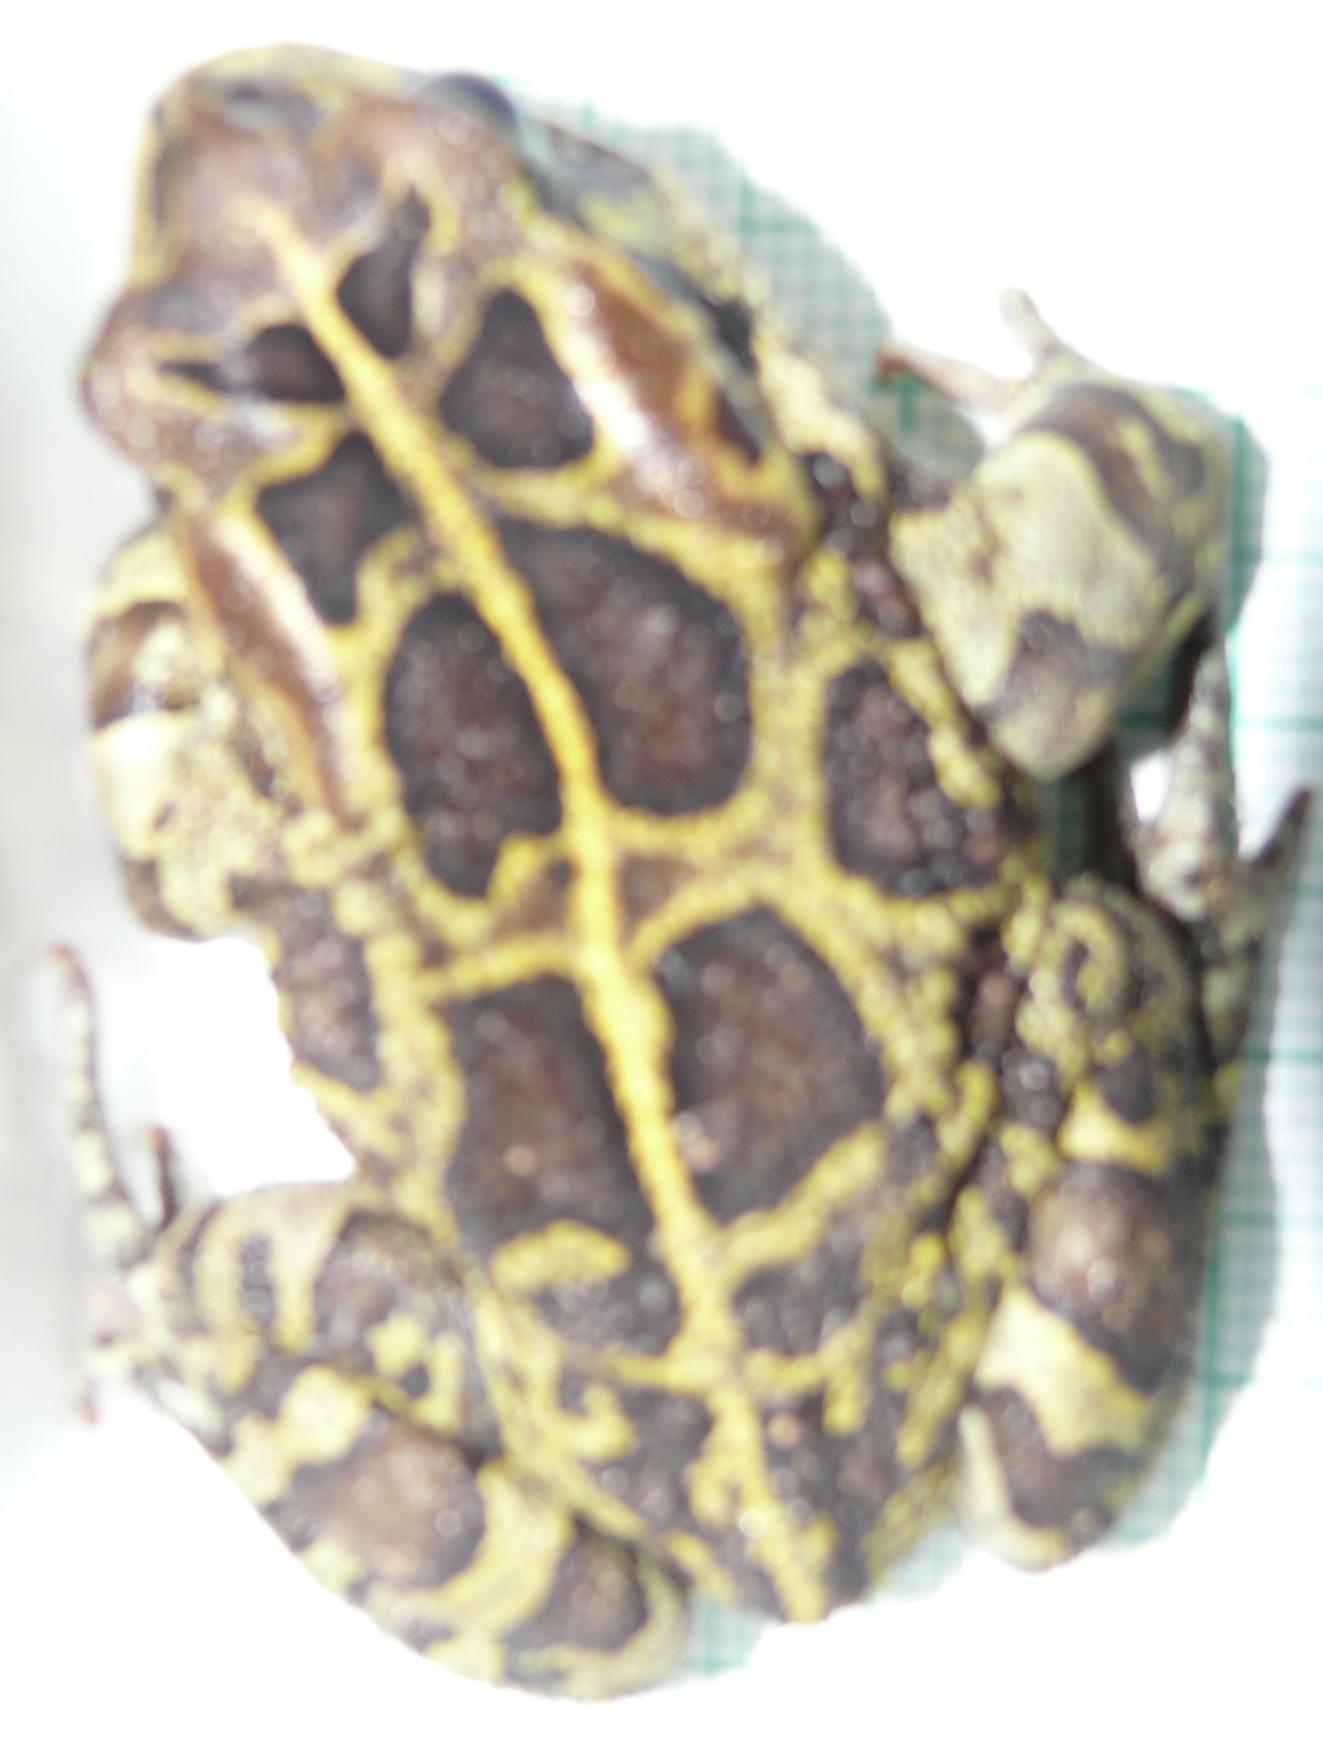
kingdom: Animalia
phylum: Chordata
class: Amphibia
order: Anura
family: Bufonidae
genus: Sclerophrys
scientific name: Sclerophrys pantherina
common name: Panther toad
